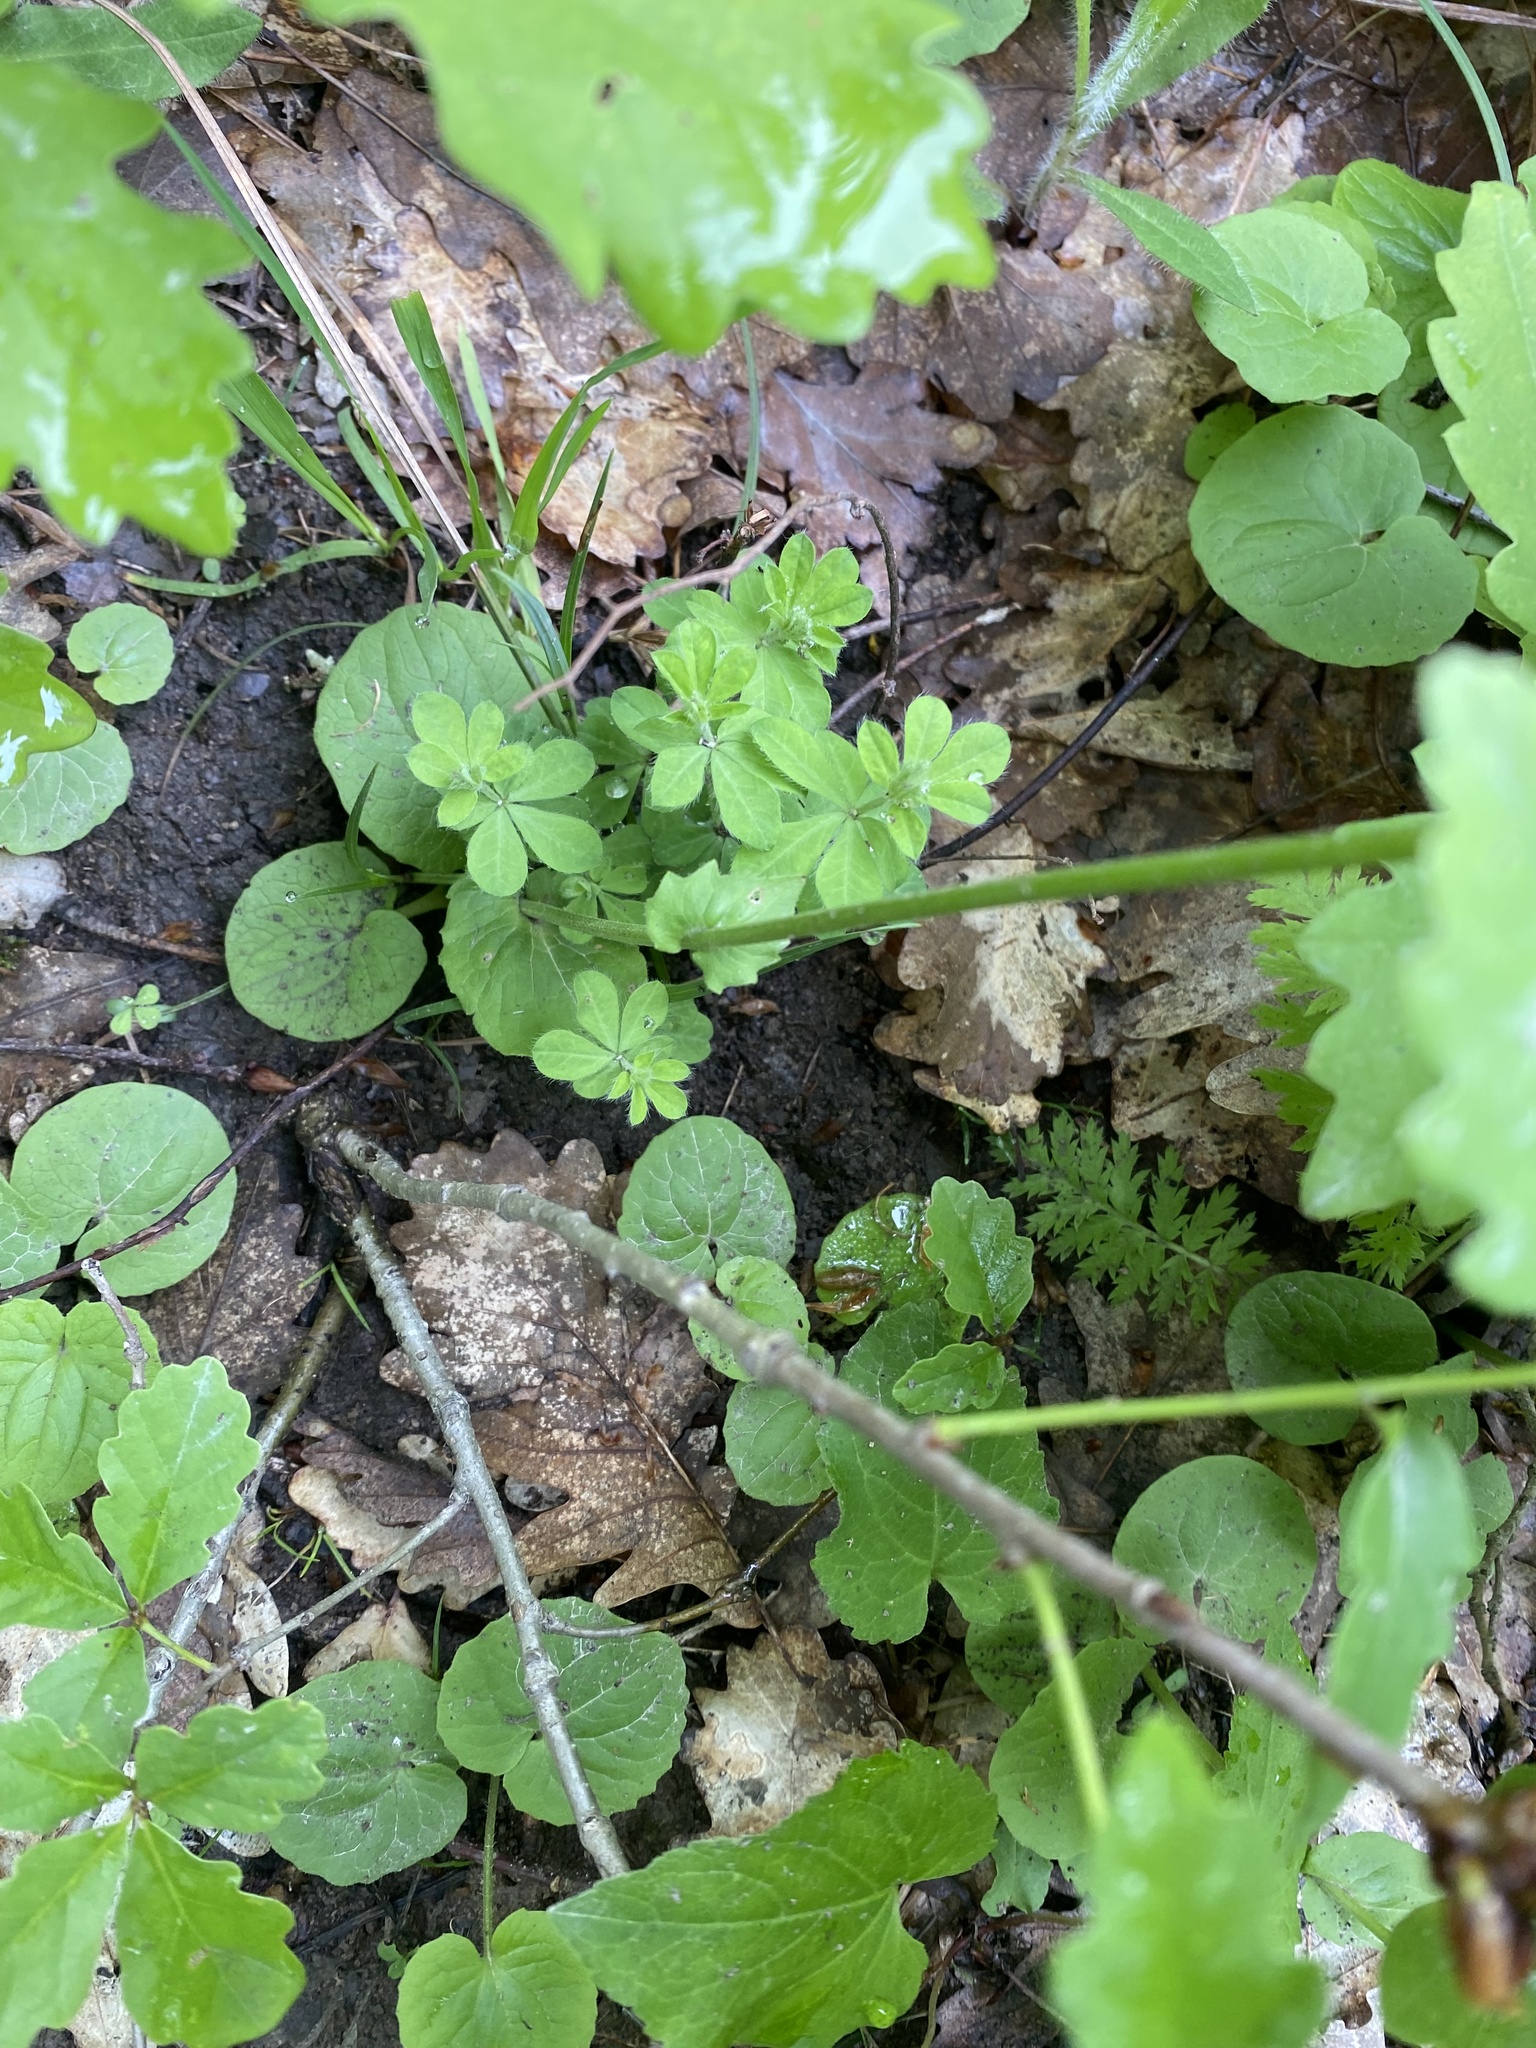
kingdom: Plantae
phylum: Tracheophyta
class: Magnoliopsida
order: Asterales
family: Asteraceae
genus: Doronicum
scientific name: Doronicum
